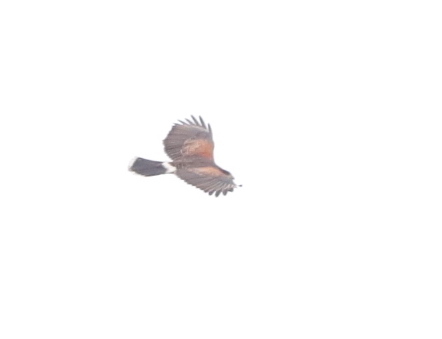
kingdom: Animalia
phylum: Chordata
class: Aves
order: Accipitriformes
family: Accipitridae
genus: Parabuteo
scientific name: Parabuteo unicinctus
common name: Harris's hawk
